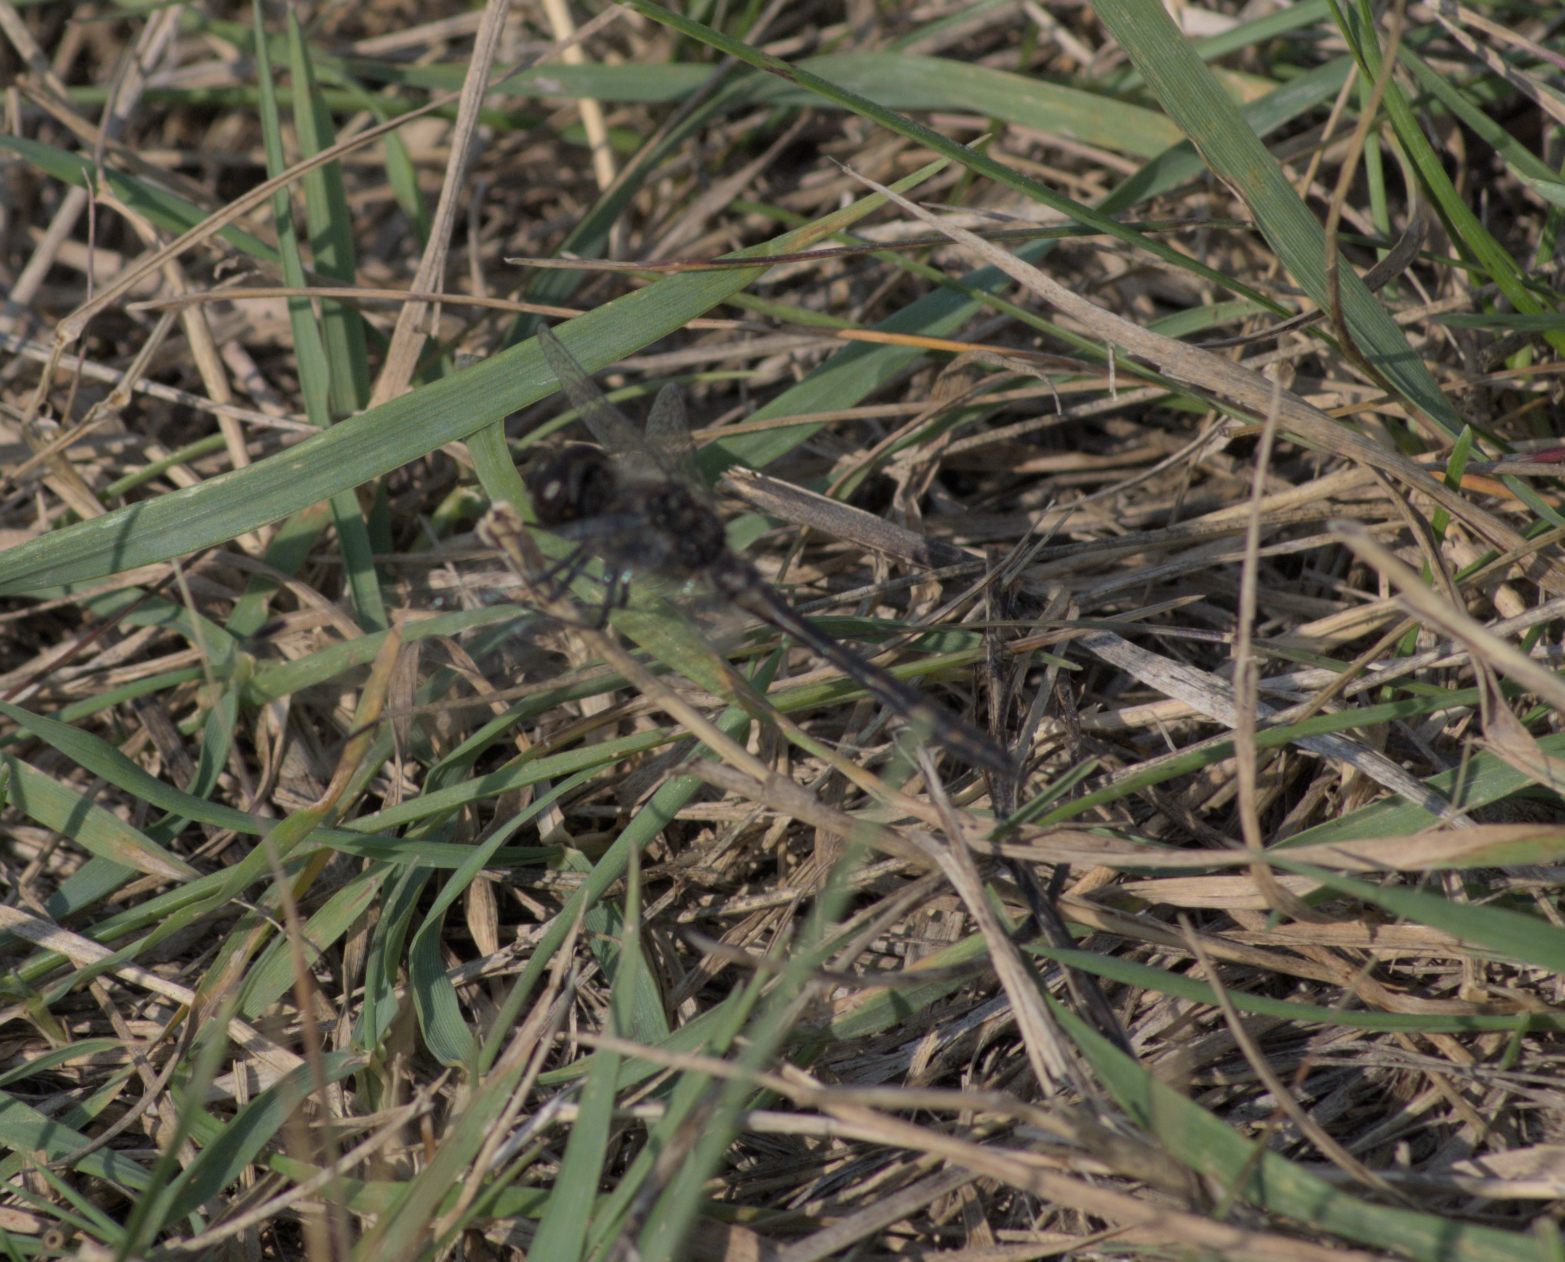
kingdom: Animalia
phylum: Arthropoda
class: Insecta
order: Odonata
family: Libellulidae
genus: Sympetrum
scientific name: Sympetrum danae
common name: Black darter
